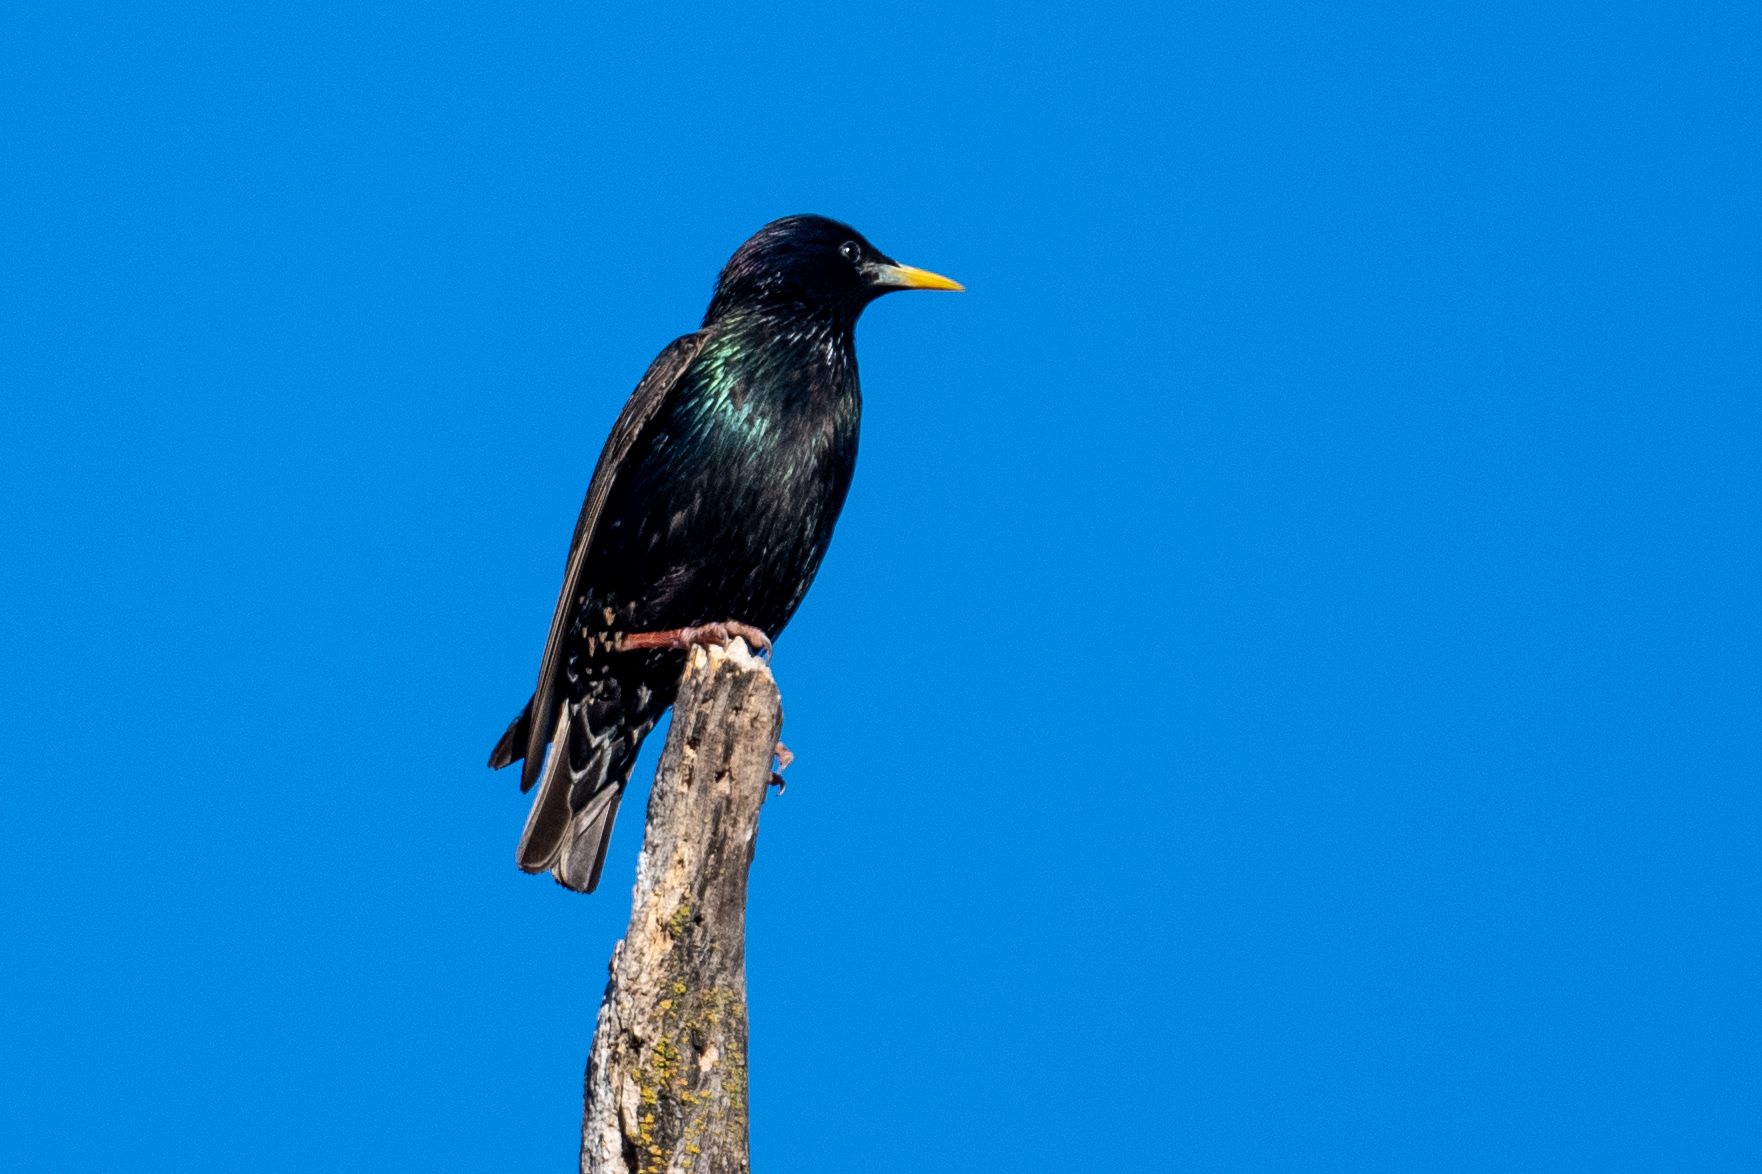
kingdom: Animalia
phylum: Chordata
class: Aves
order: Passeriformes
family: Sturnidae
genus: Sturnus
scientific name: Sturnus vulgaris
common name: Common starling
